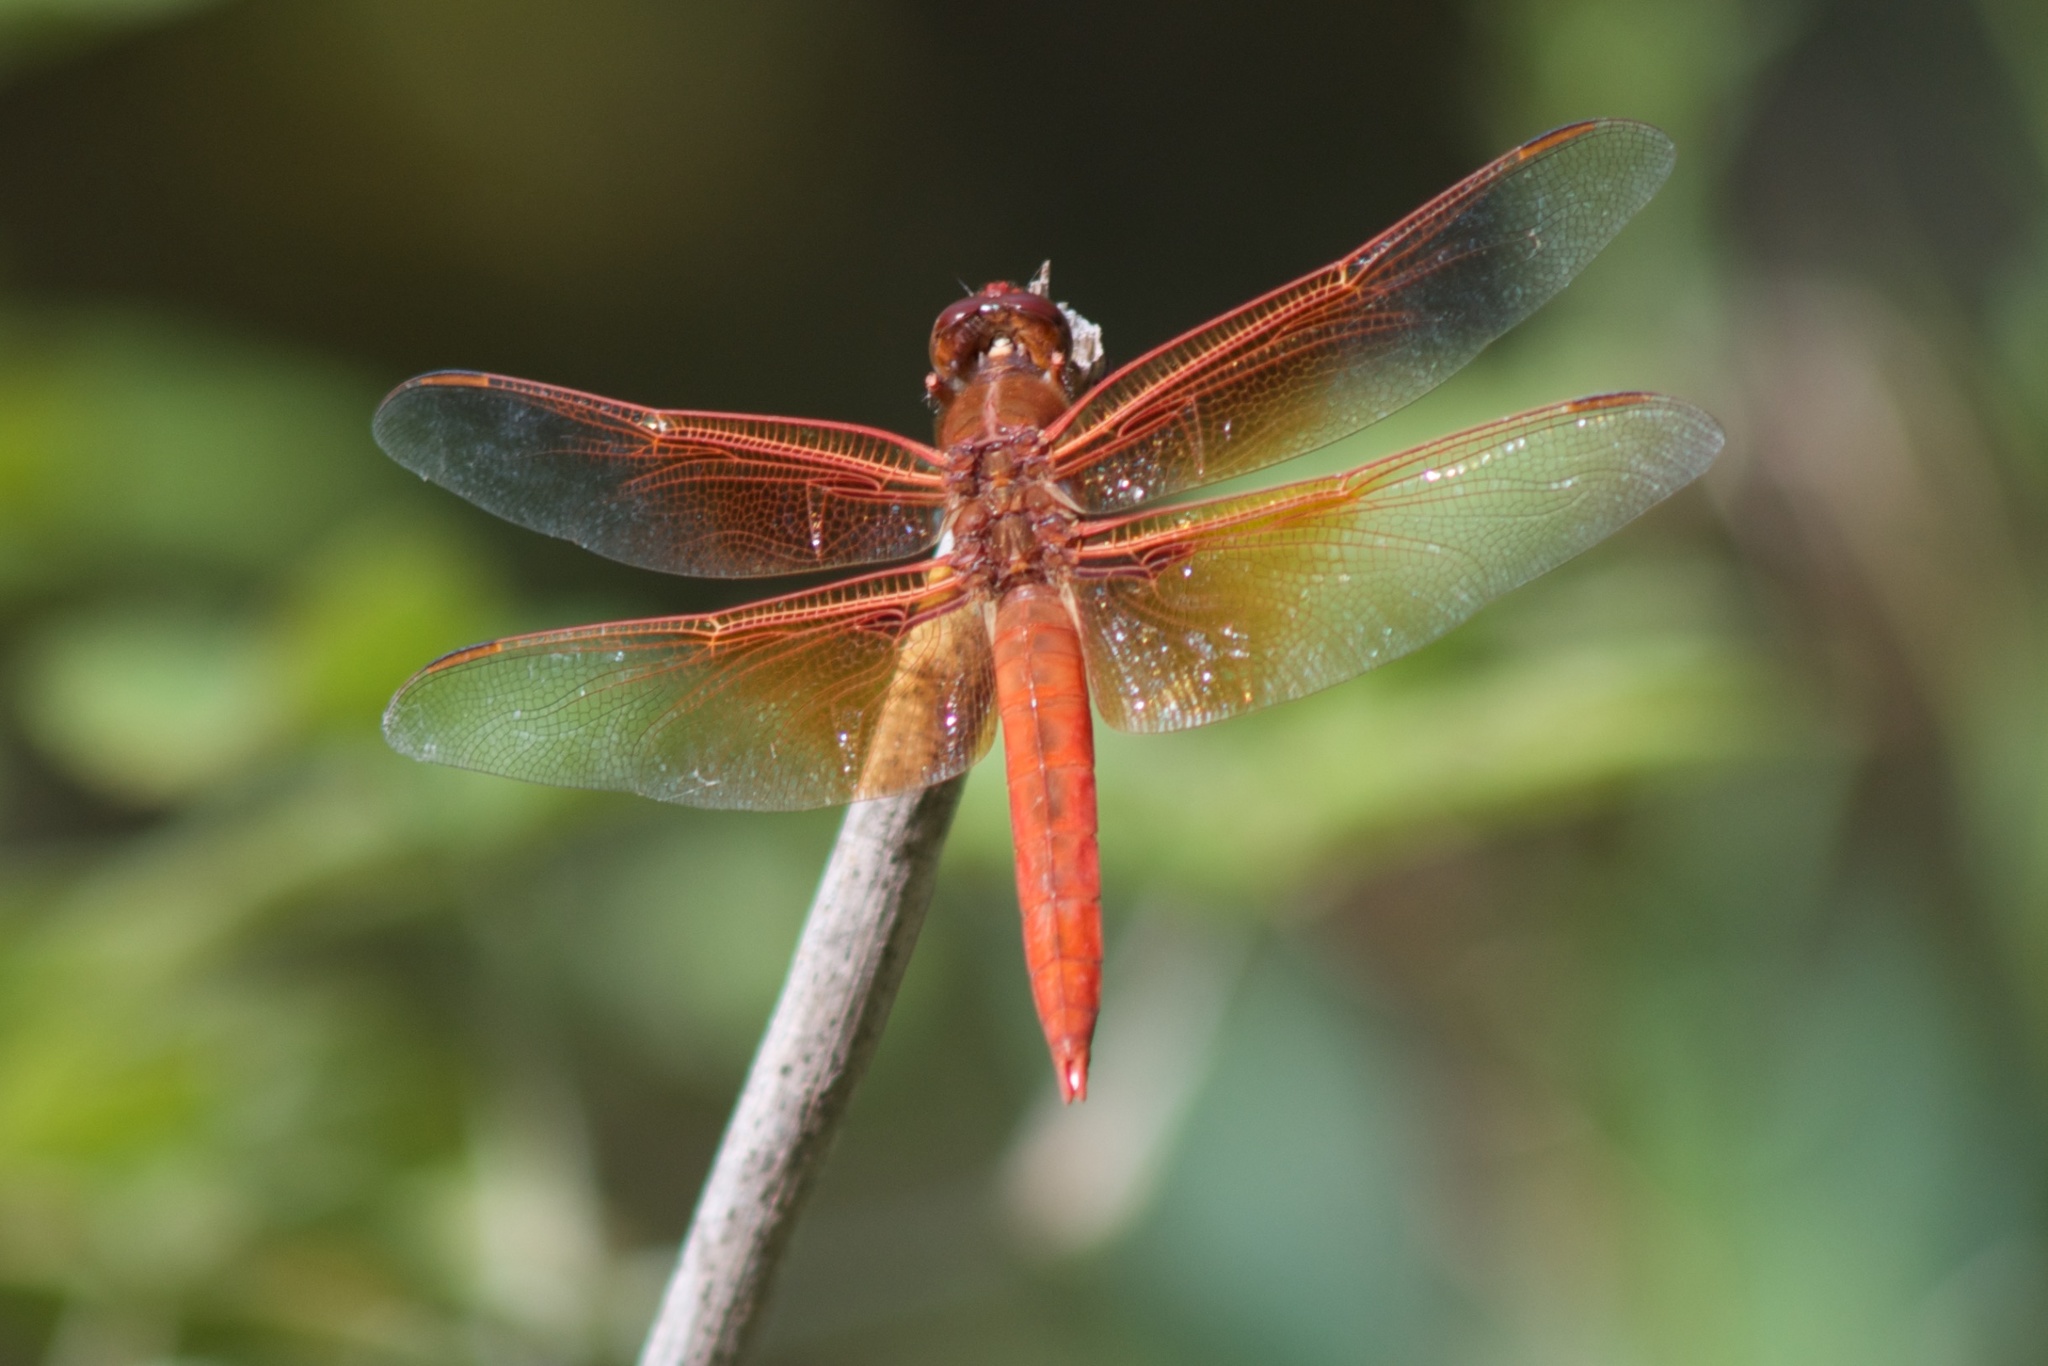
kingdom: Animalia
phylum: Arthropoda
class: Insecta
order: Odonata
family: Libellulidae
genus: Libellula
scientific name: Libellula saturata
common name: Flame skimmer
